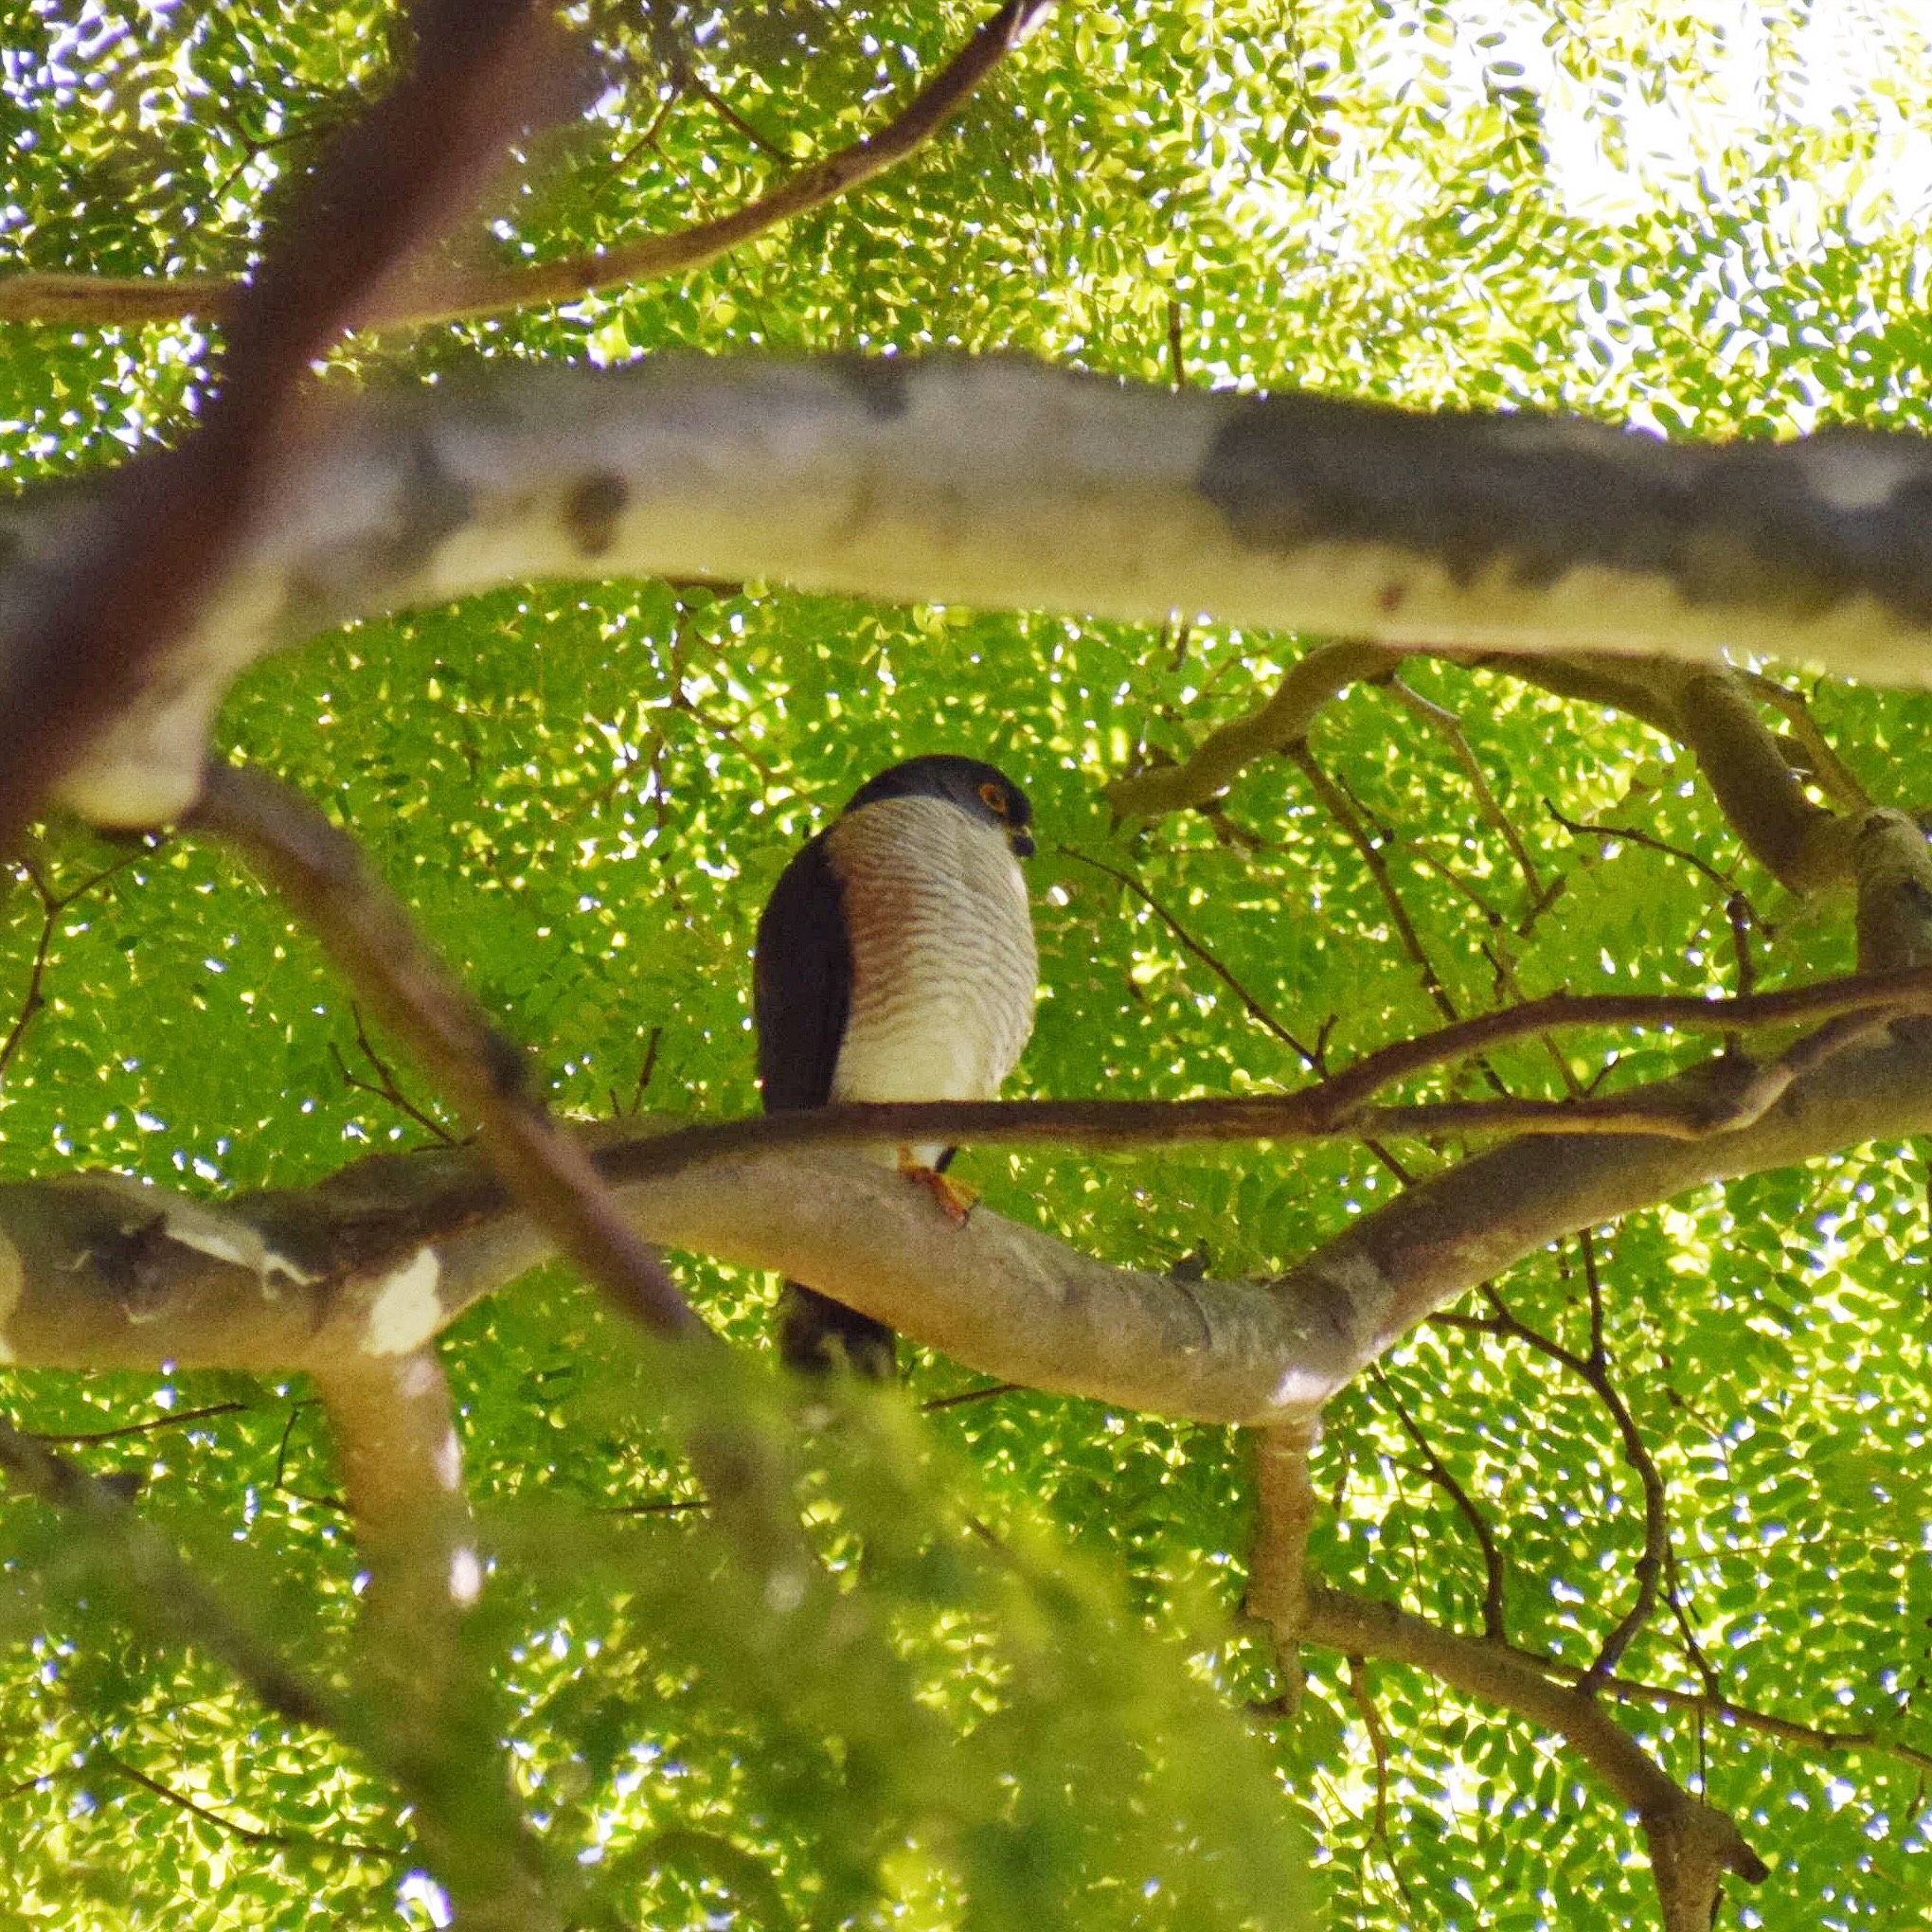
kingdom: Animalia
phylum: Chordata
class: Aves
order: Accipitriformes
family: Accipitridae
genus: Accipiter
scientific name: Accipiter minullus
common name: Little sparrowhawk
